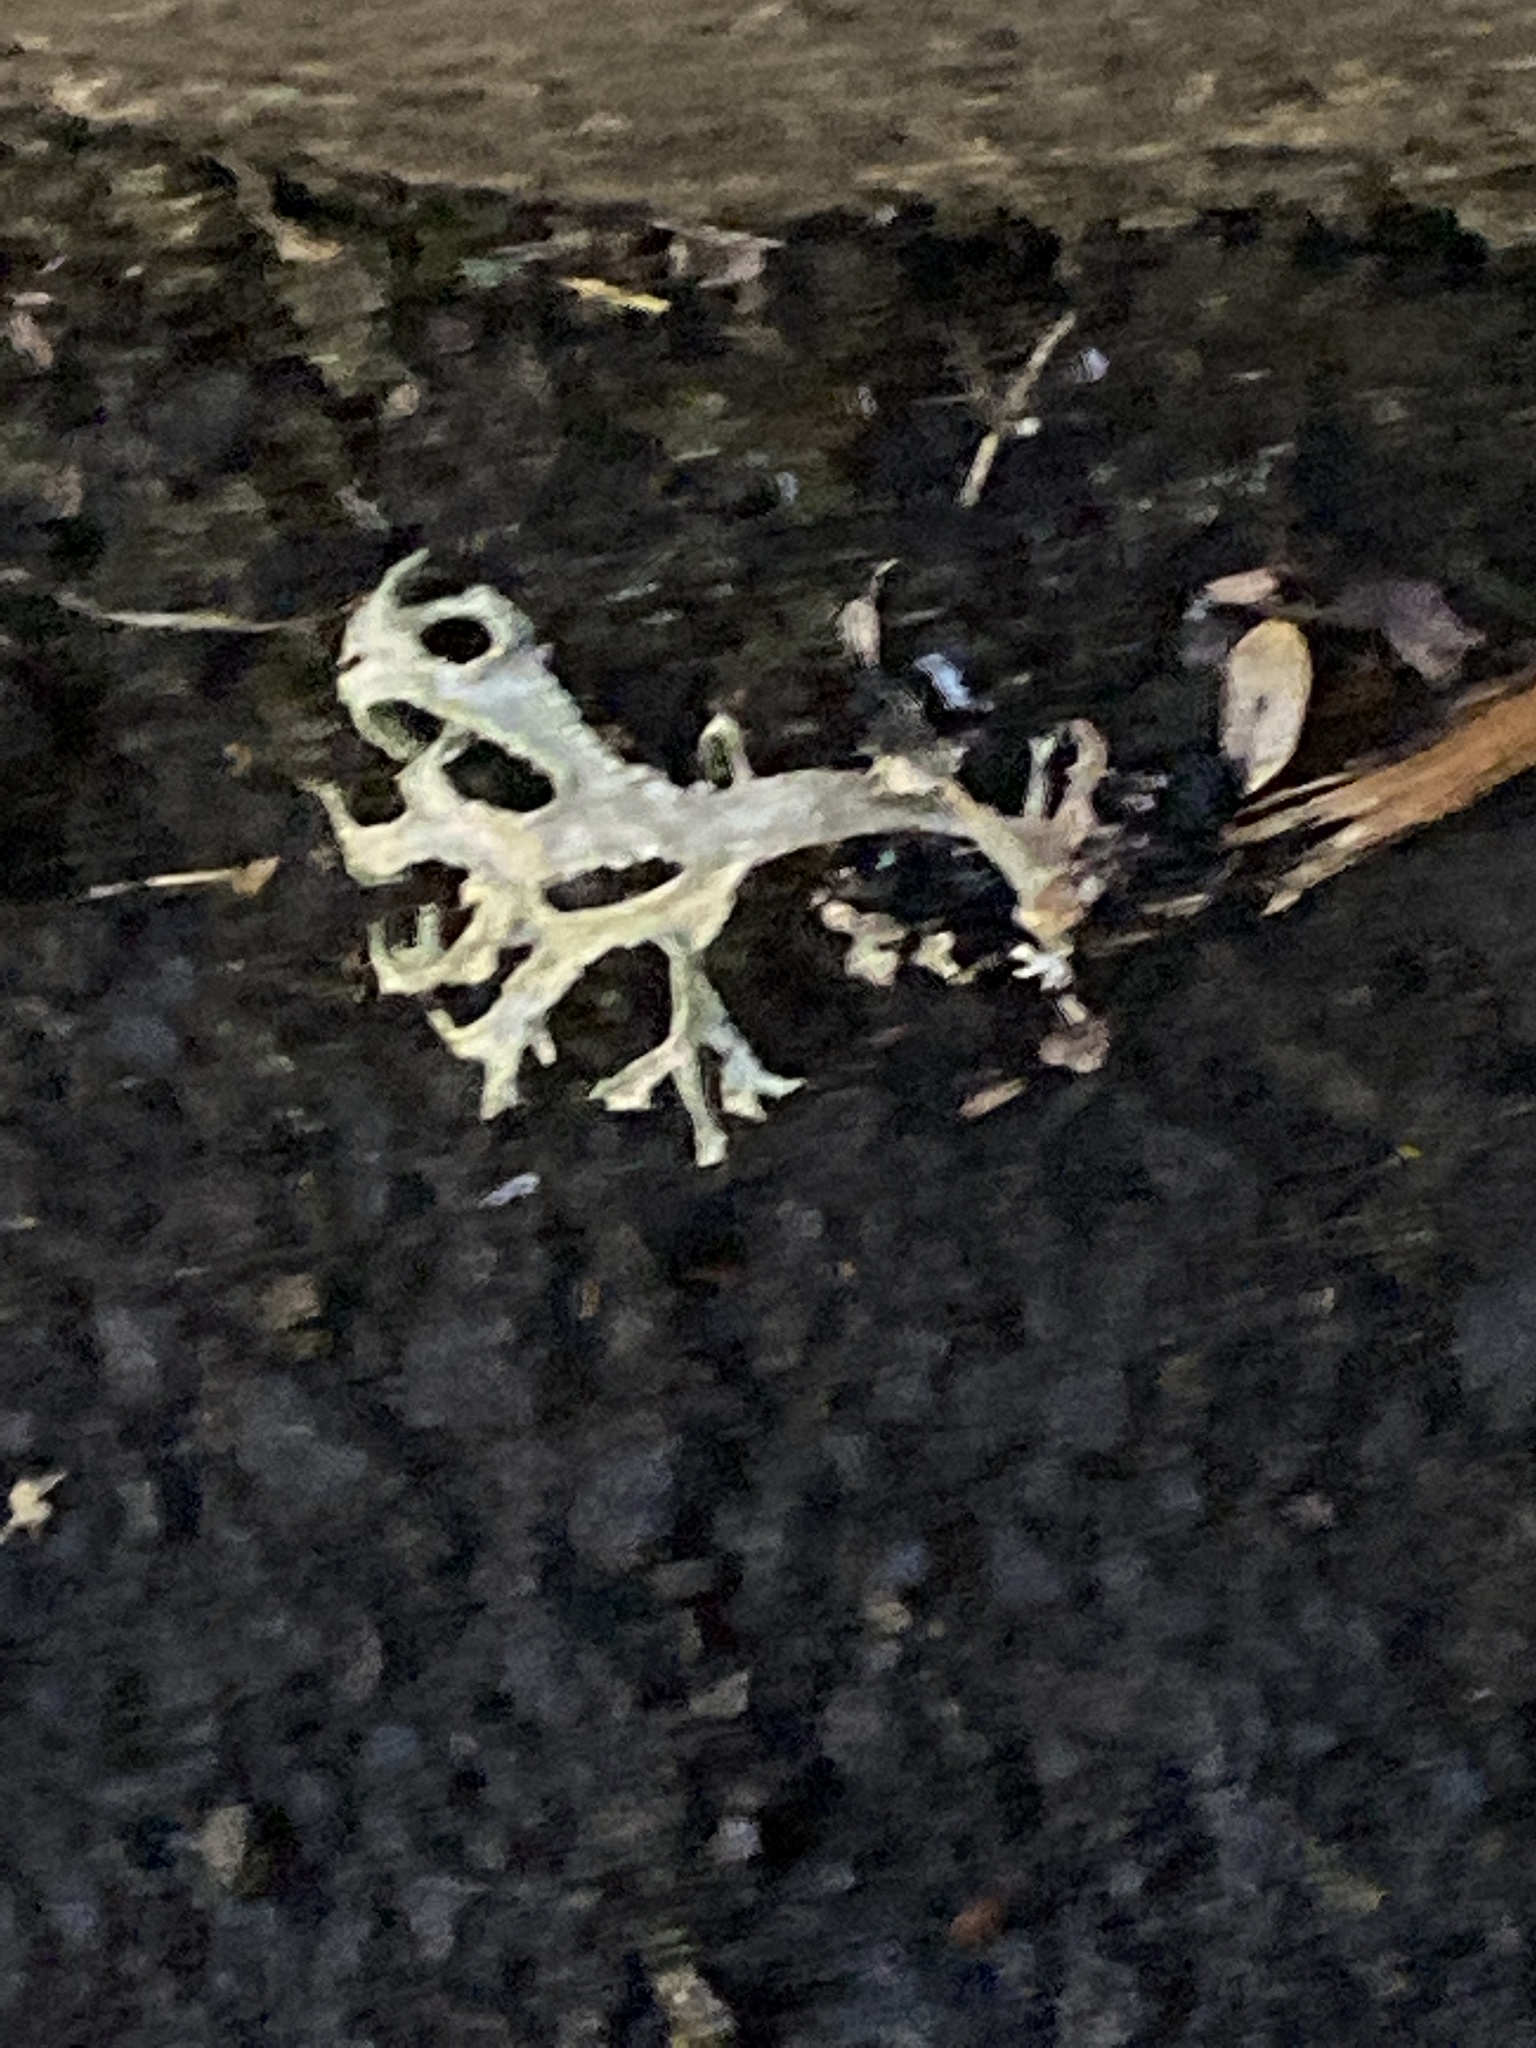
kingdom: Fungi
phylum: Ascomycota
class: Lecanoromycetes
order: Lecanorales
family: Parmeliaceae
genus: Evernia
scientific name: Evernia prunastri
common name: Oak moss
